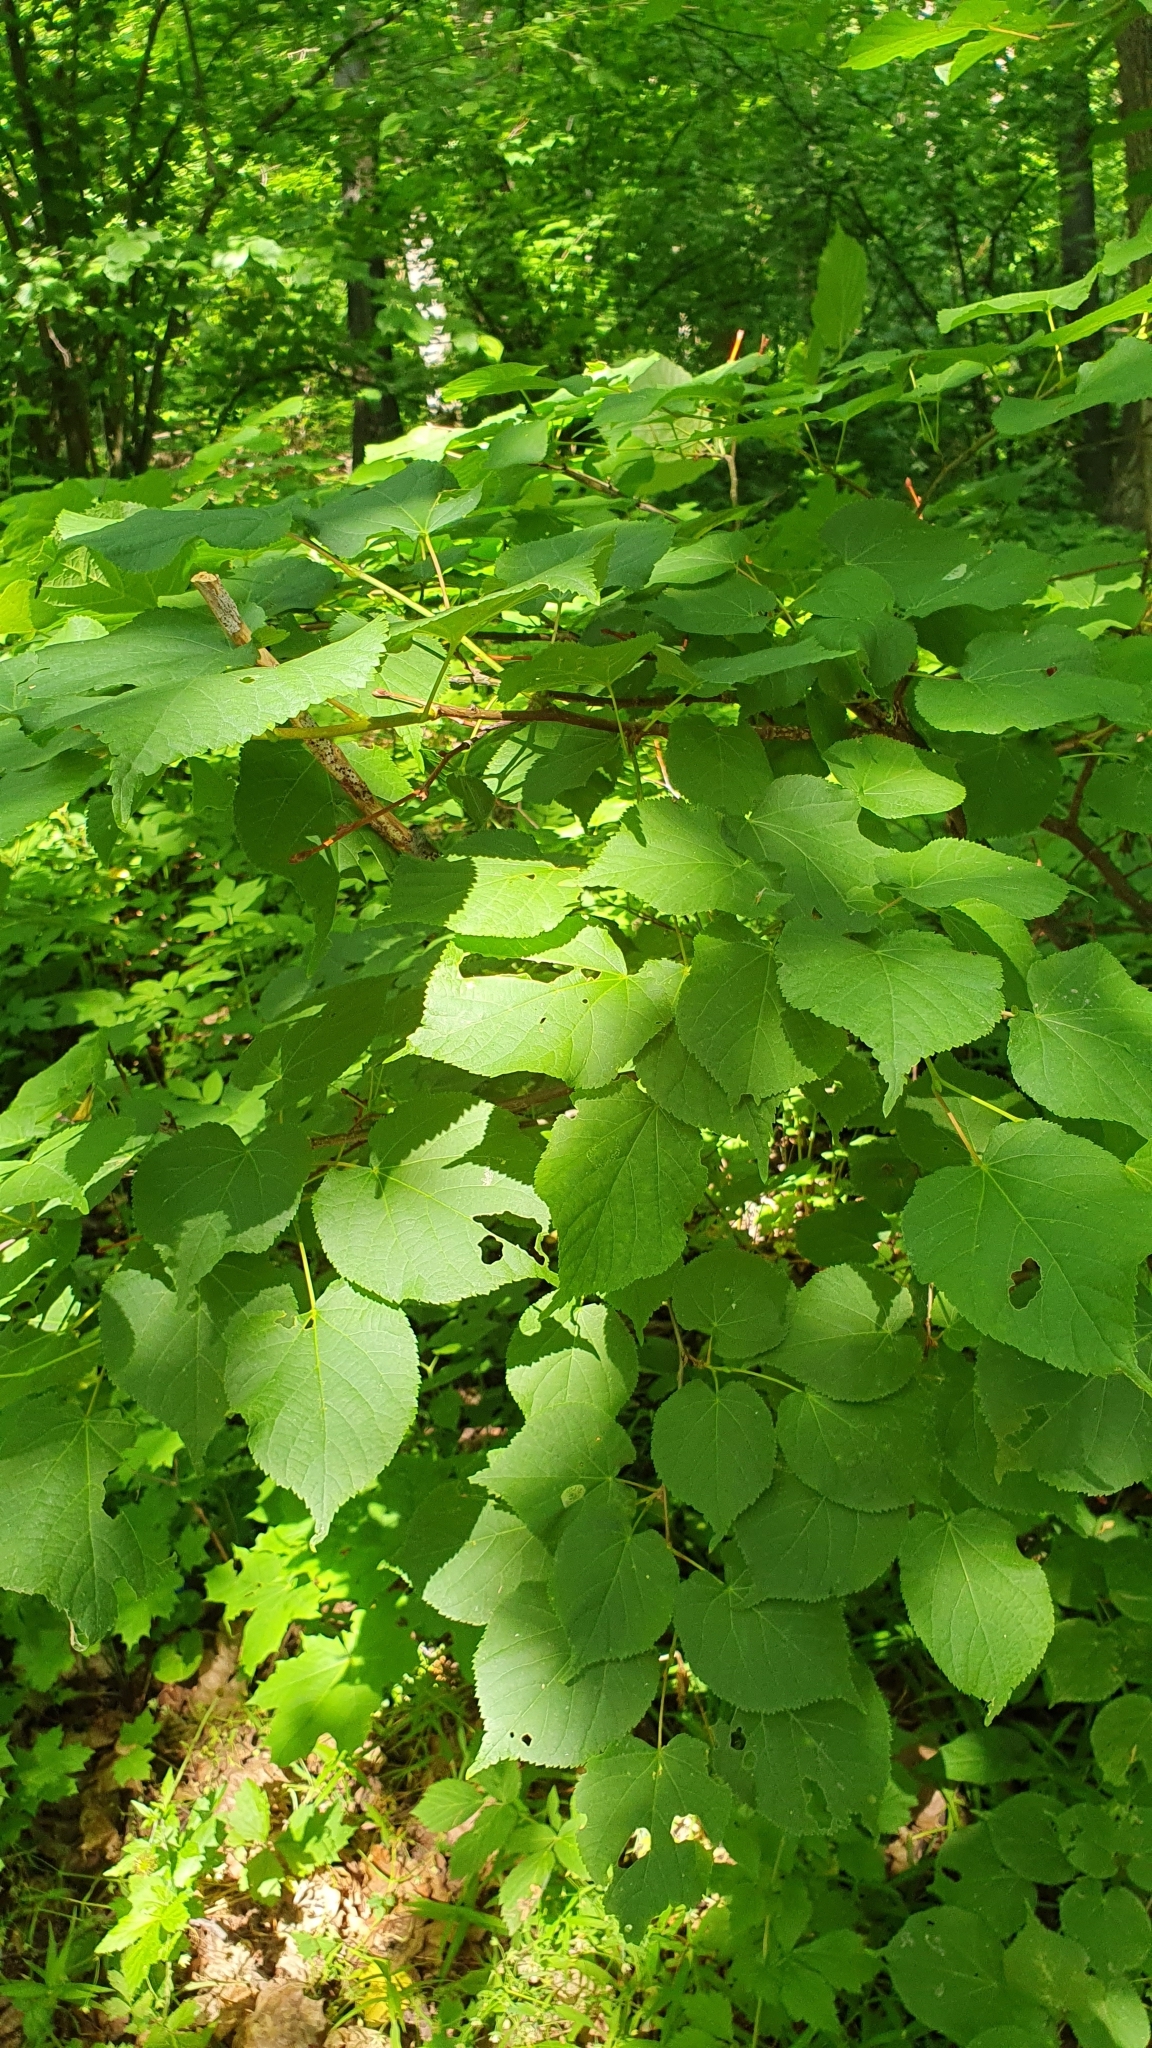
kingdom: Plantae
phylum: Tracheophyta
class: Magnoliopsida
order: Malvales
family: Malvaceae
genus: Tilia
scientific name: Tilia cordata
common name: Small-leaved lime
